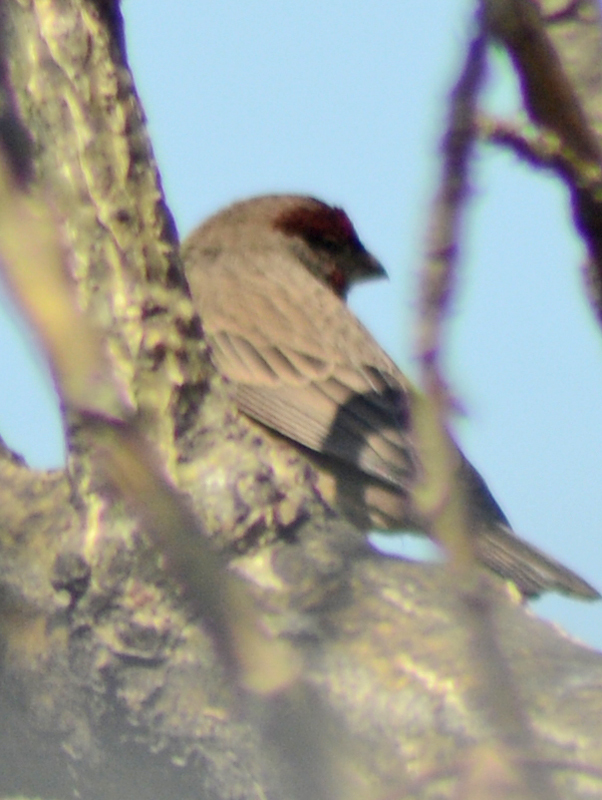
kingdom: Animalia
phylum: Chordata
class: Aves
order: Passeriformes
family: Fringillidae
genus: Haemorhous
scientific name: Haemorhous mexicanus
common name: House finch
